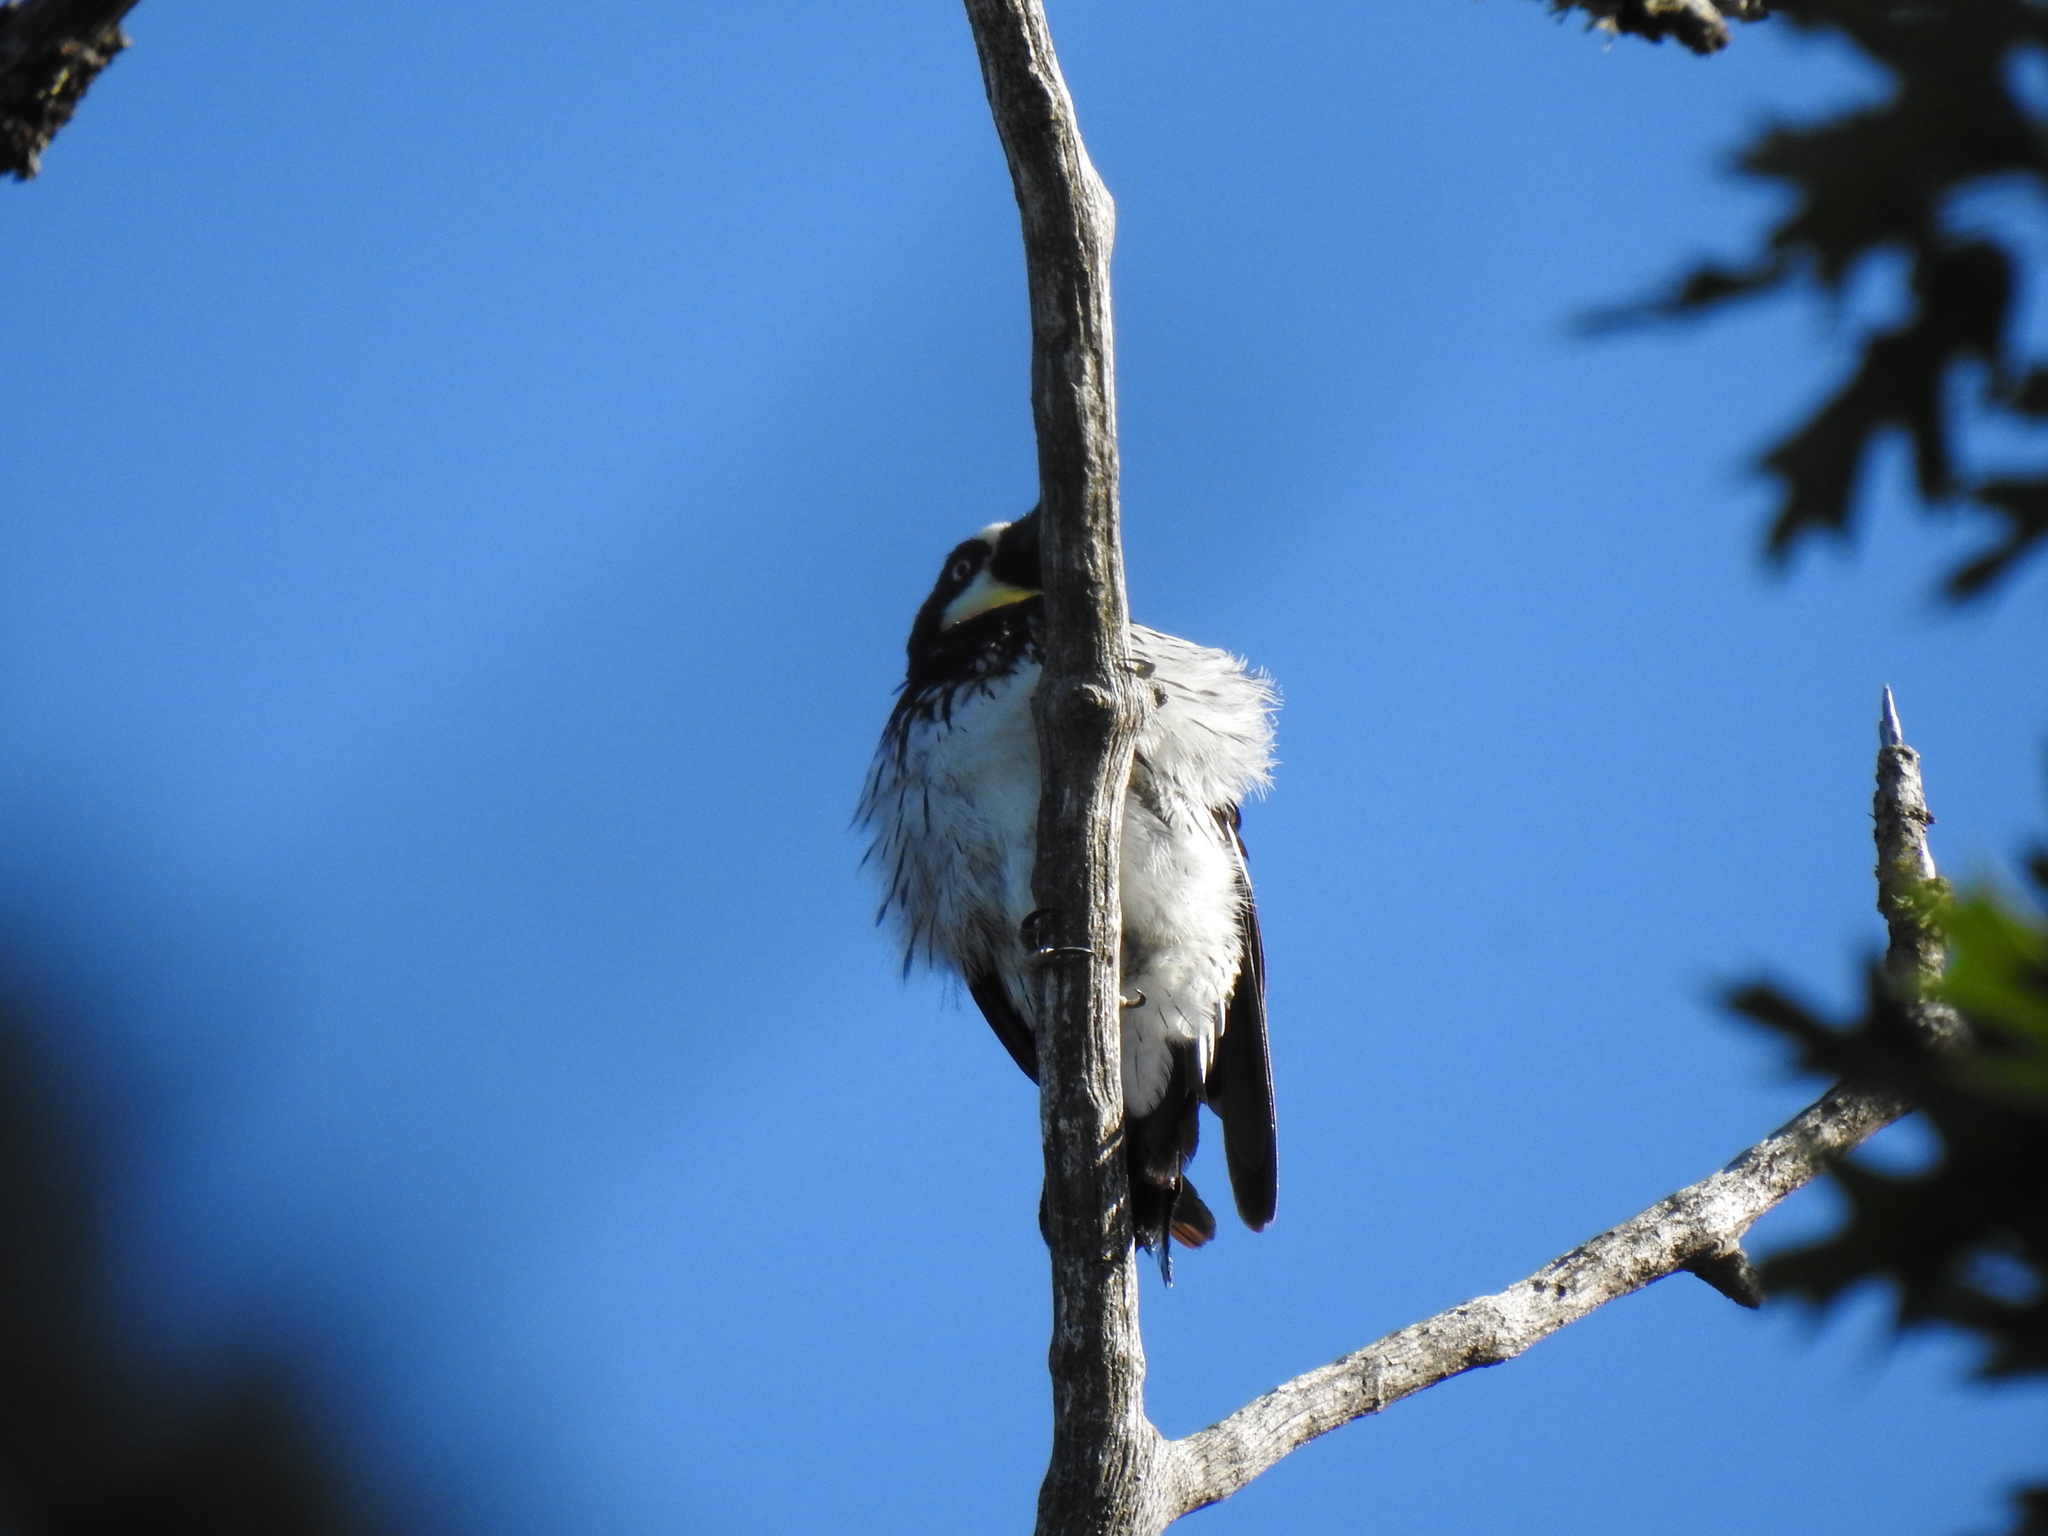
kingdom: Animalia
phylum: Chordata
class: Aves
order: Piciformes
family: Picidae
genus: Melanerpes
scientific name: Melanerpes formicivorus
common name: Acorn woodpecker
